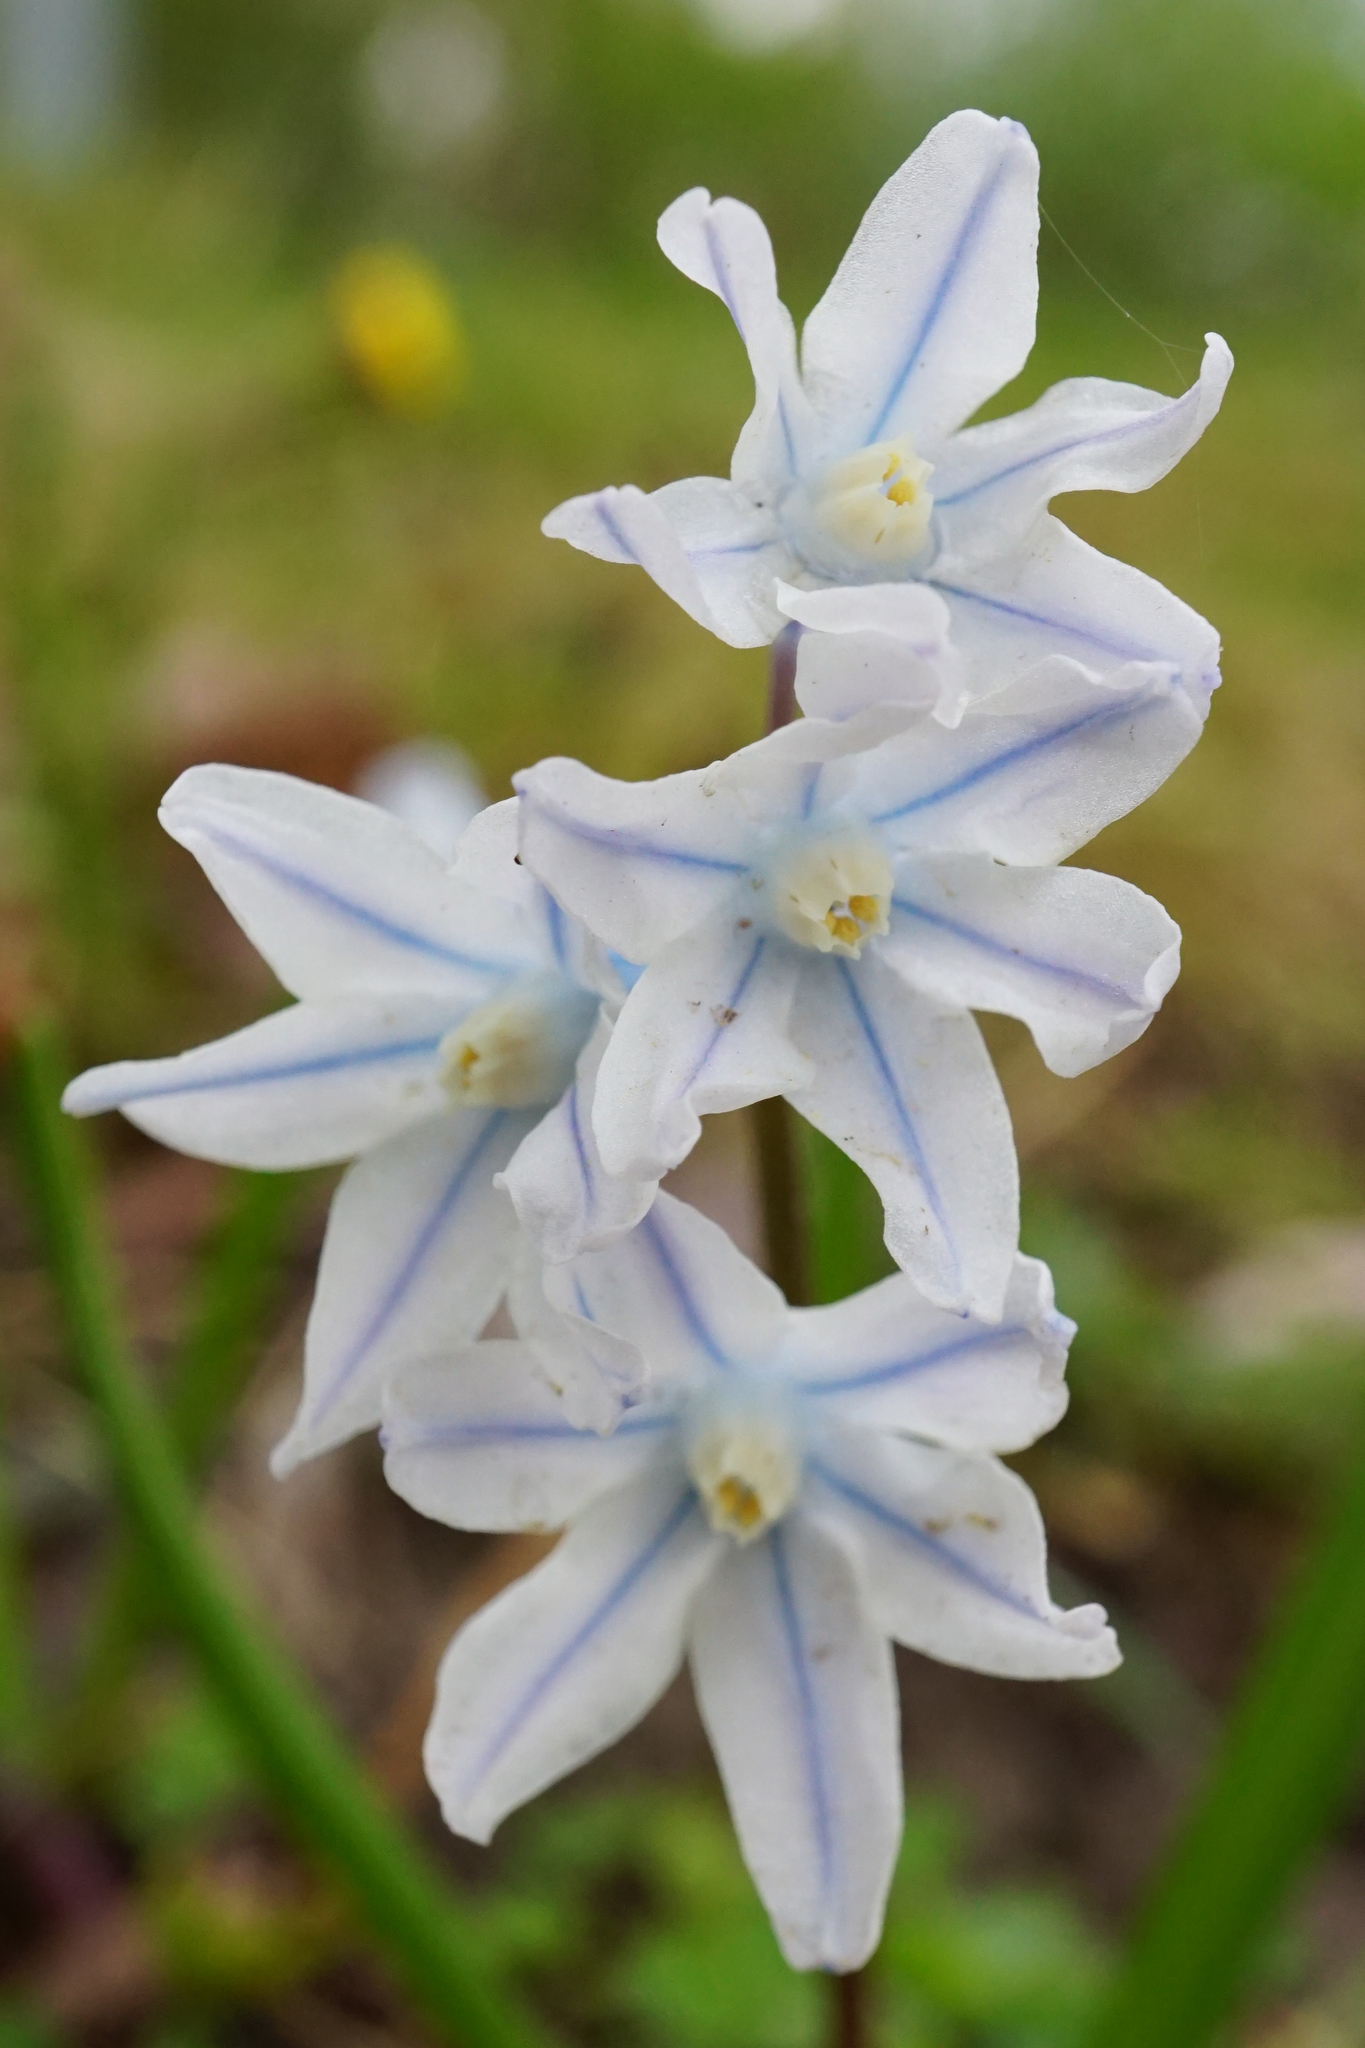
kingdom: Plantae
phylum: Tracheophyta
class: Liliopsida
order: Asparagales
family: Asparagaceae
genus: Puschkinia
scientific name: Puschkinia scilloides
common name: Striped squill
